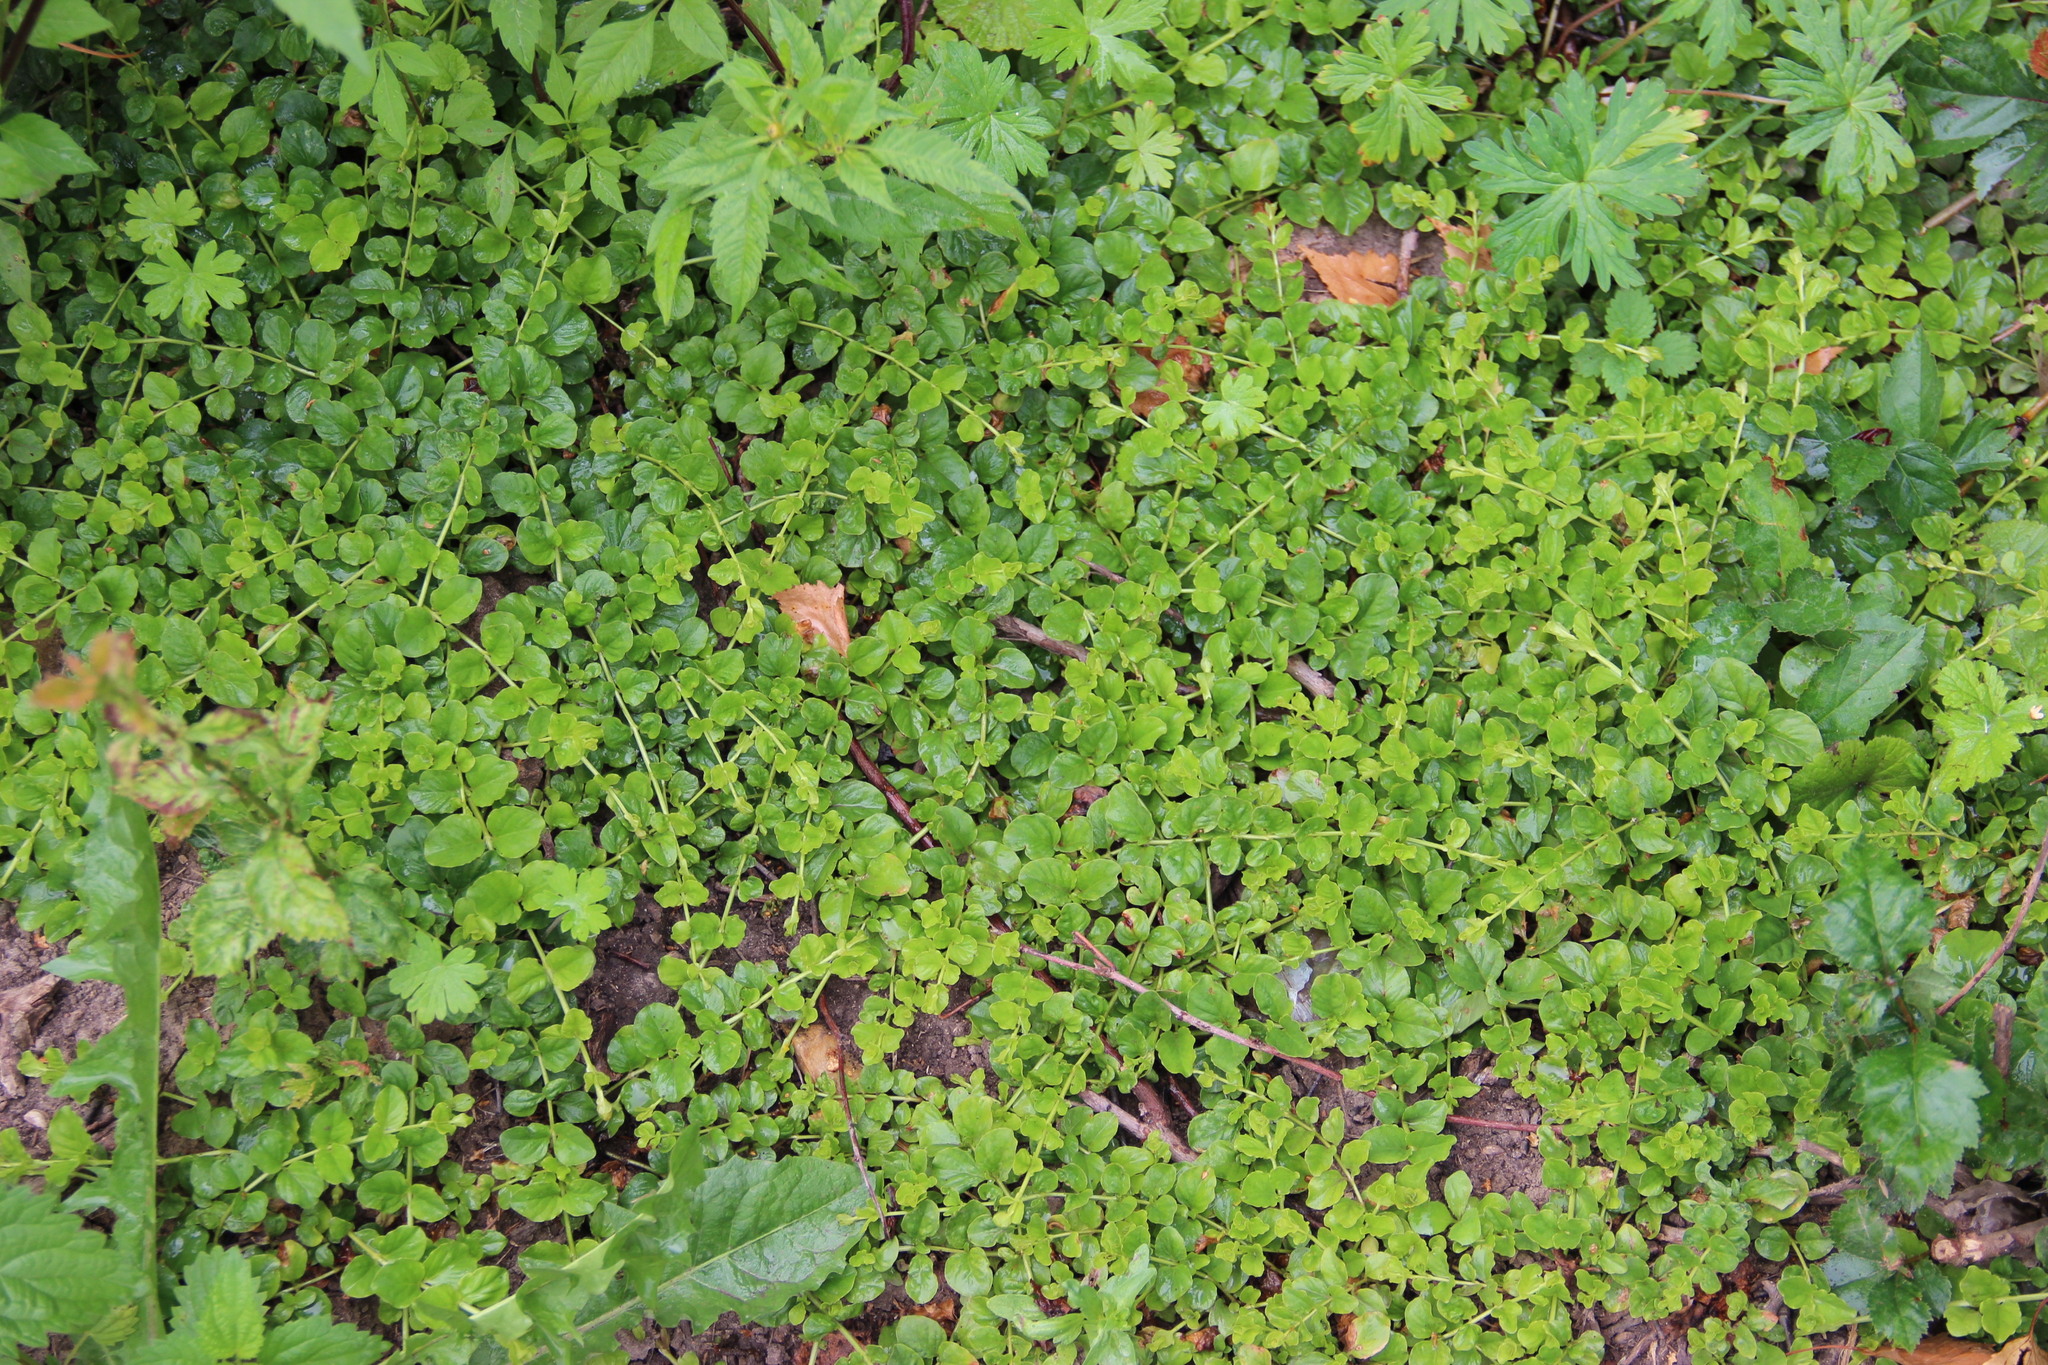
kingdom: Plantae
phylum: Tracheophyta
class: Magnoliopsida
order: Ericales
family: Primulaceae
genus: Lysimachia
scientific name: Lysimachia nummularia
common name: Moneywort
